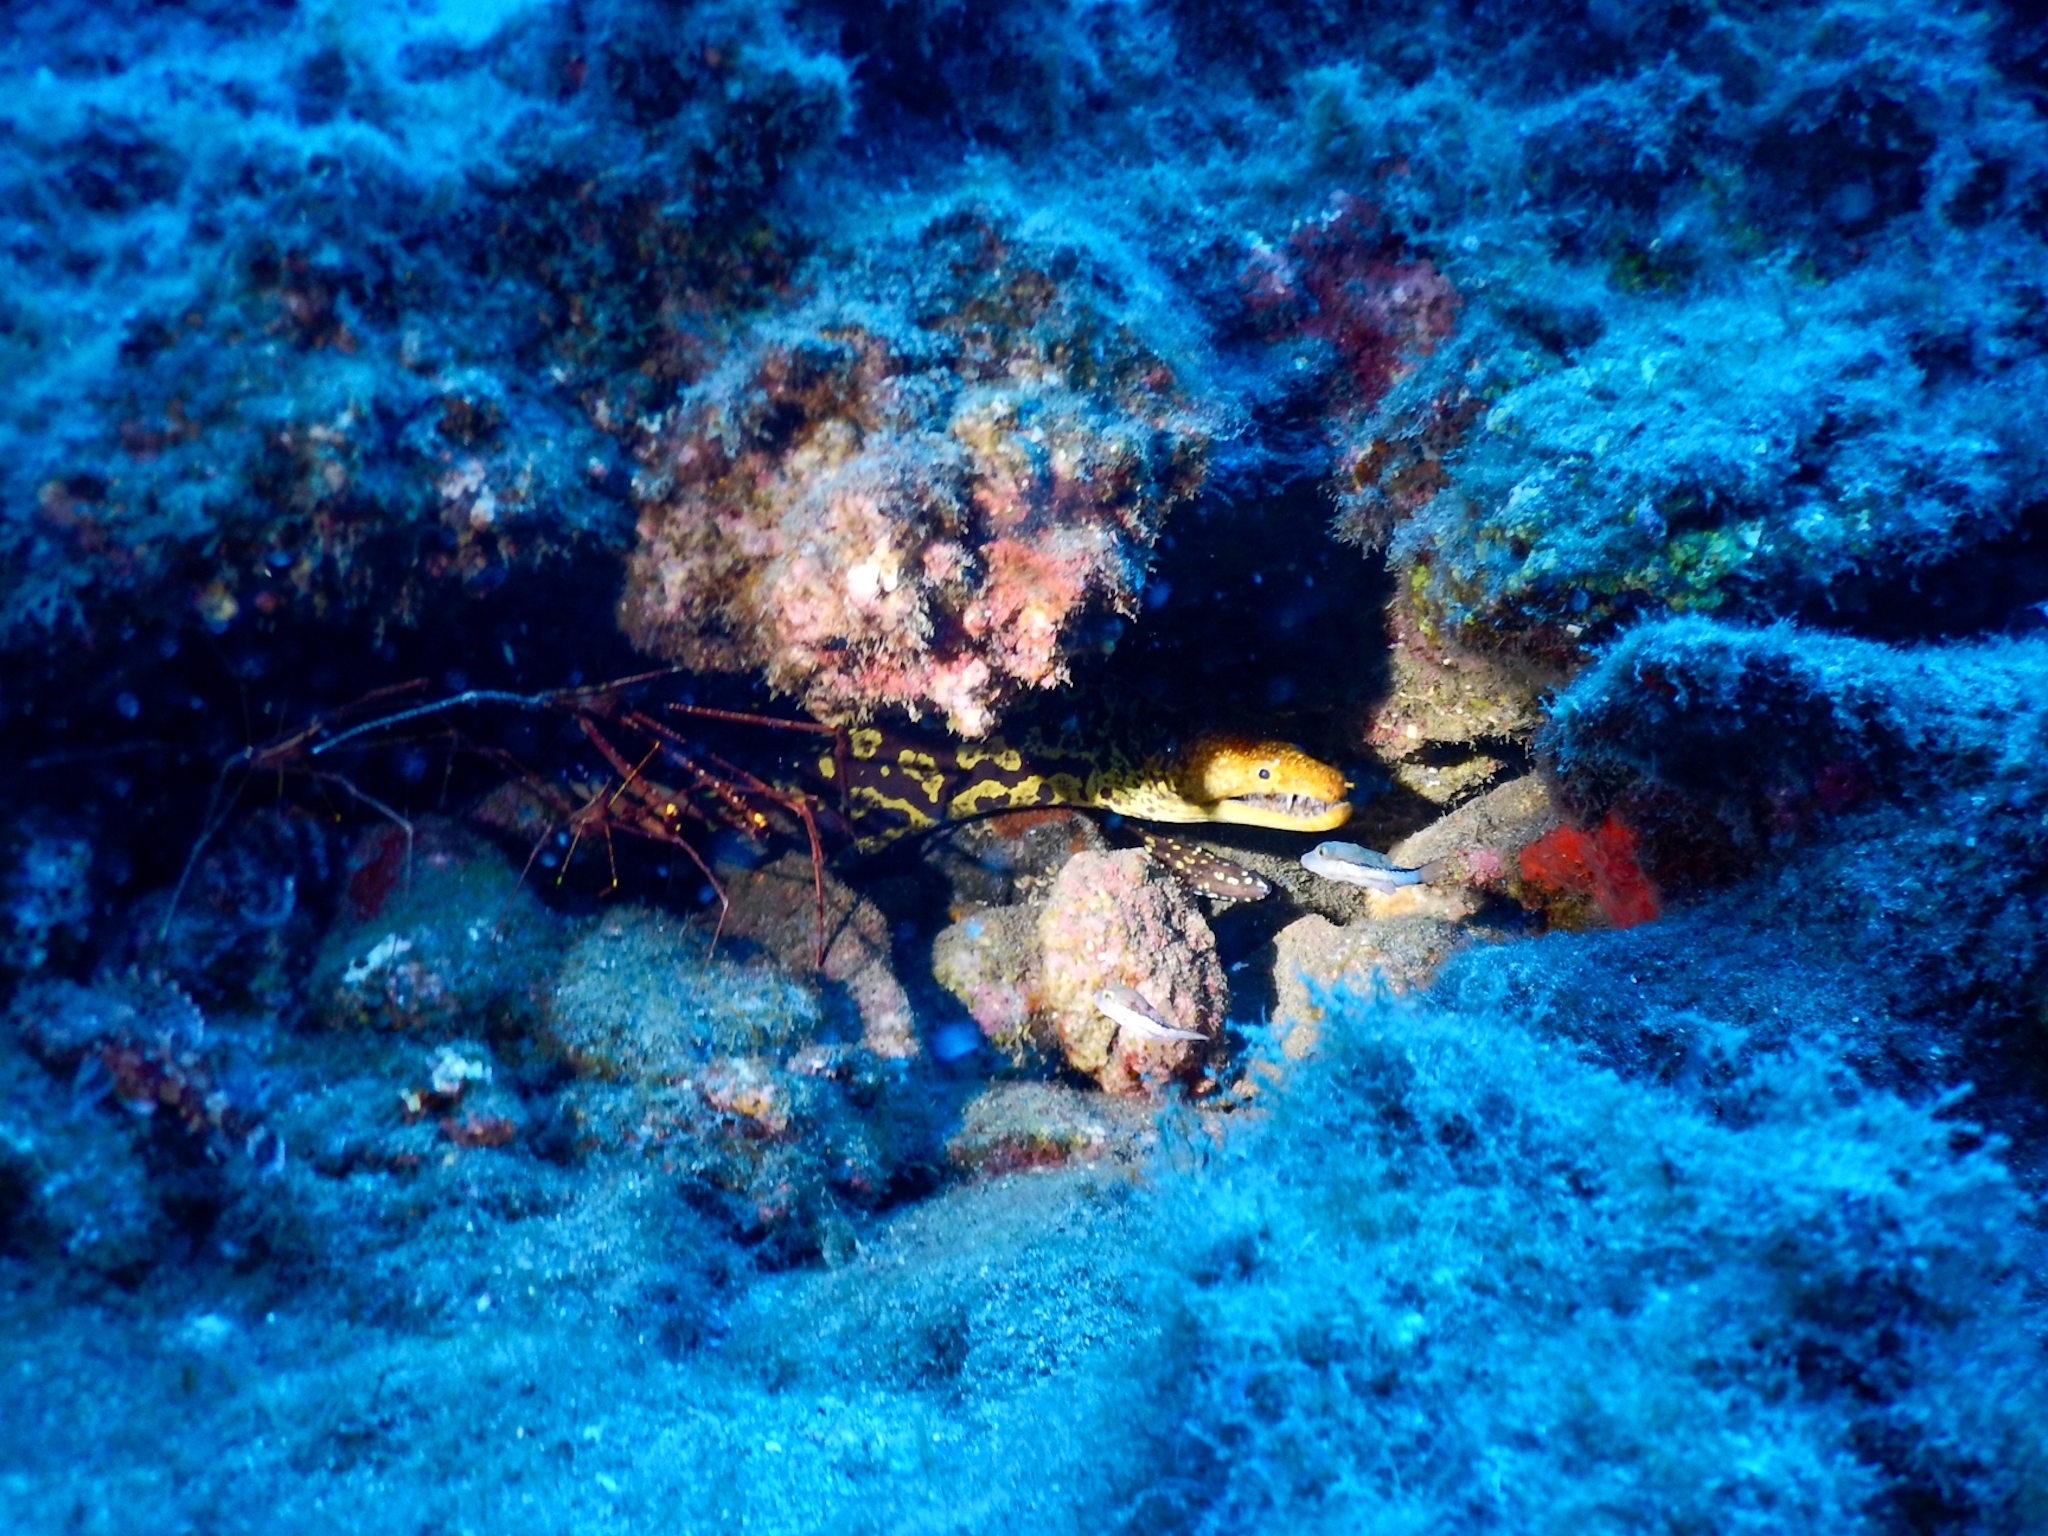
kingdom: Animalia
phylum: Chordata
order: Anguilliformes
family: Muraenidae
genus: Enchelycore
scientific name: Enchelycore anatina
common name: Fangtooth moray
